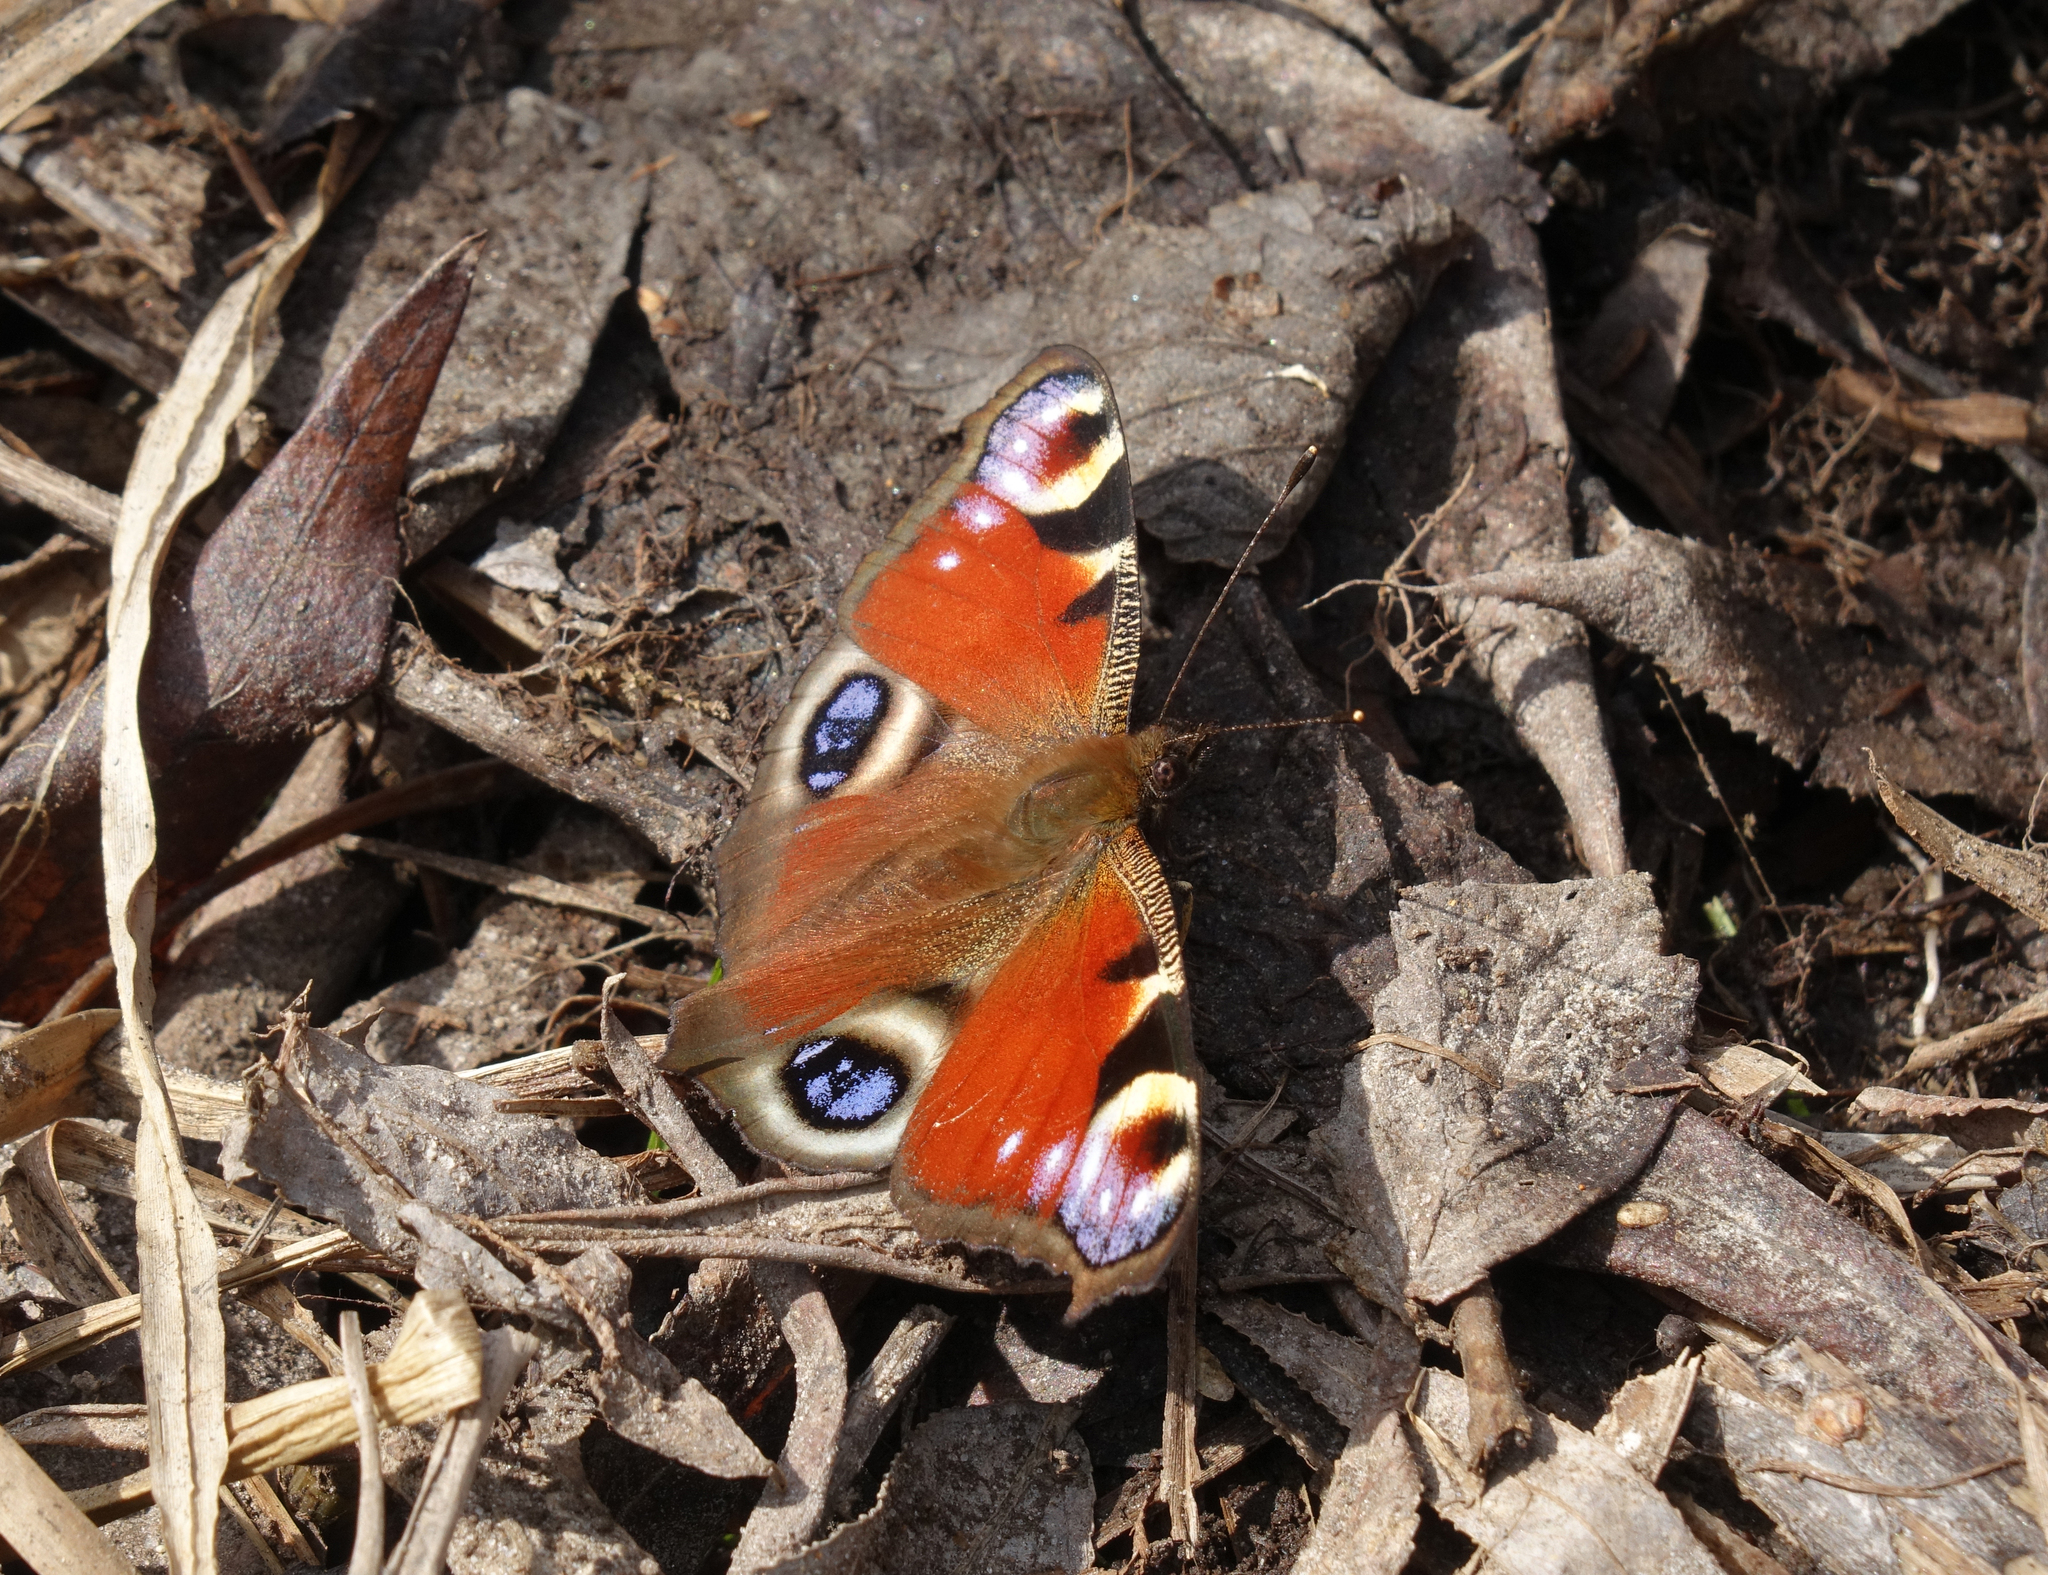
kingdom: Animalia
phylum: Arthropoda
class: Insecta
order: Lepidoptera
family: Nymphalidae
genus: Aglais
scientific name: Aglais io
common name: Peacock
